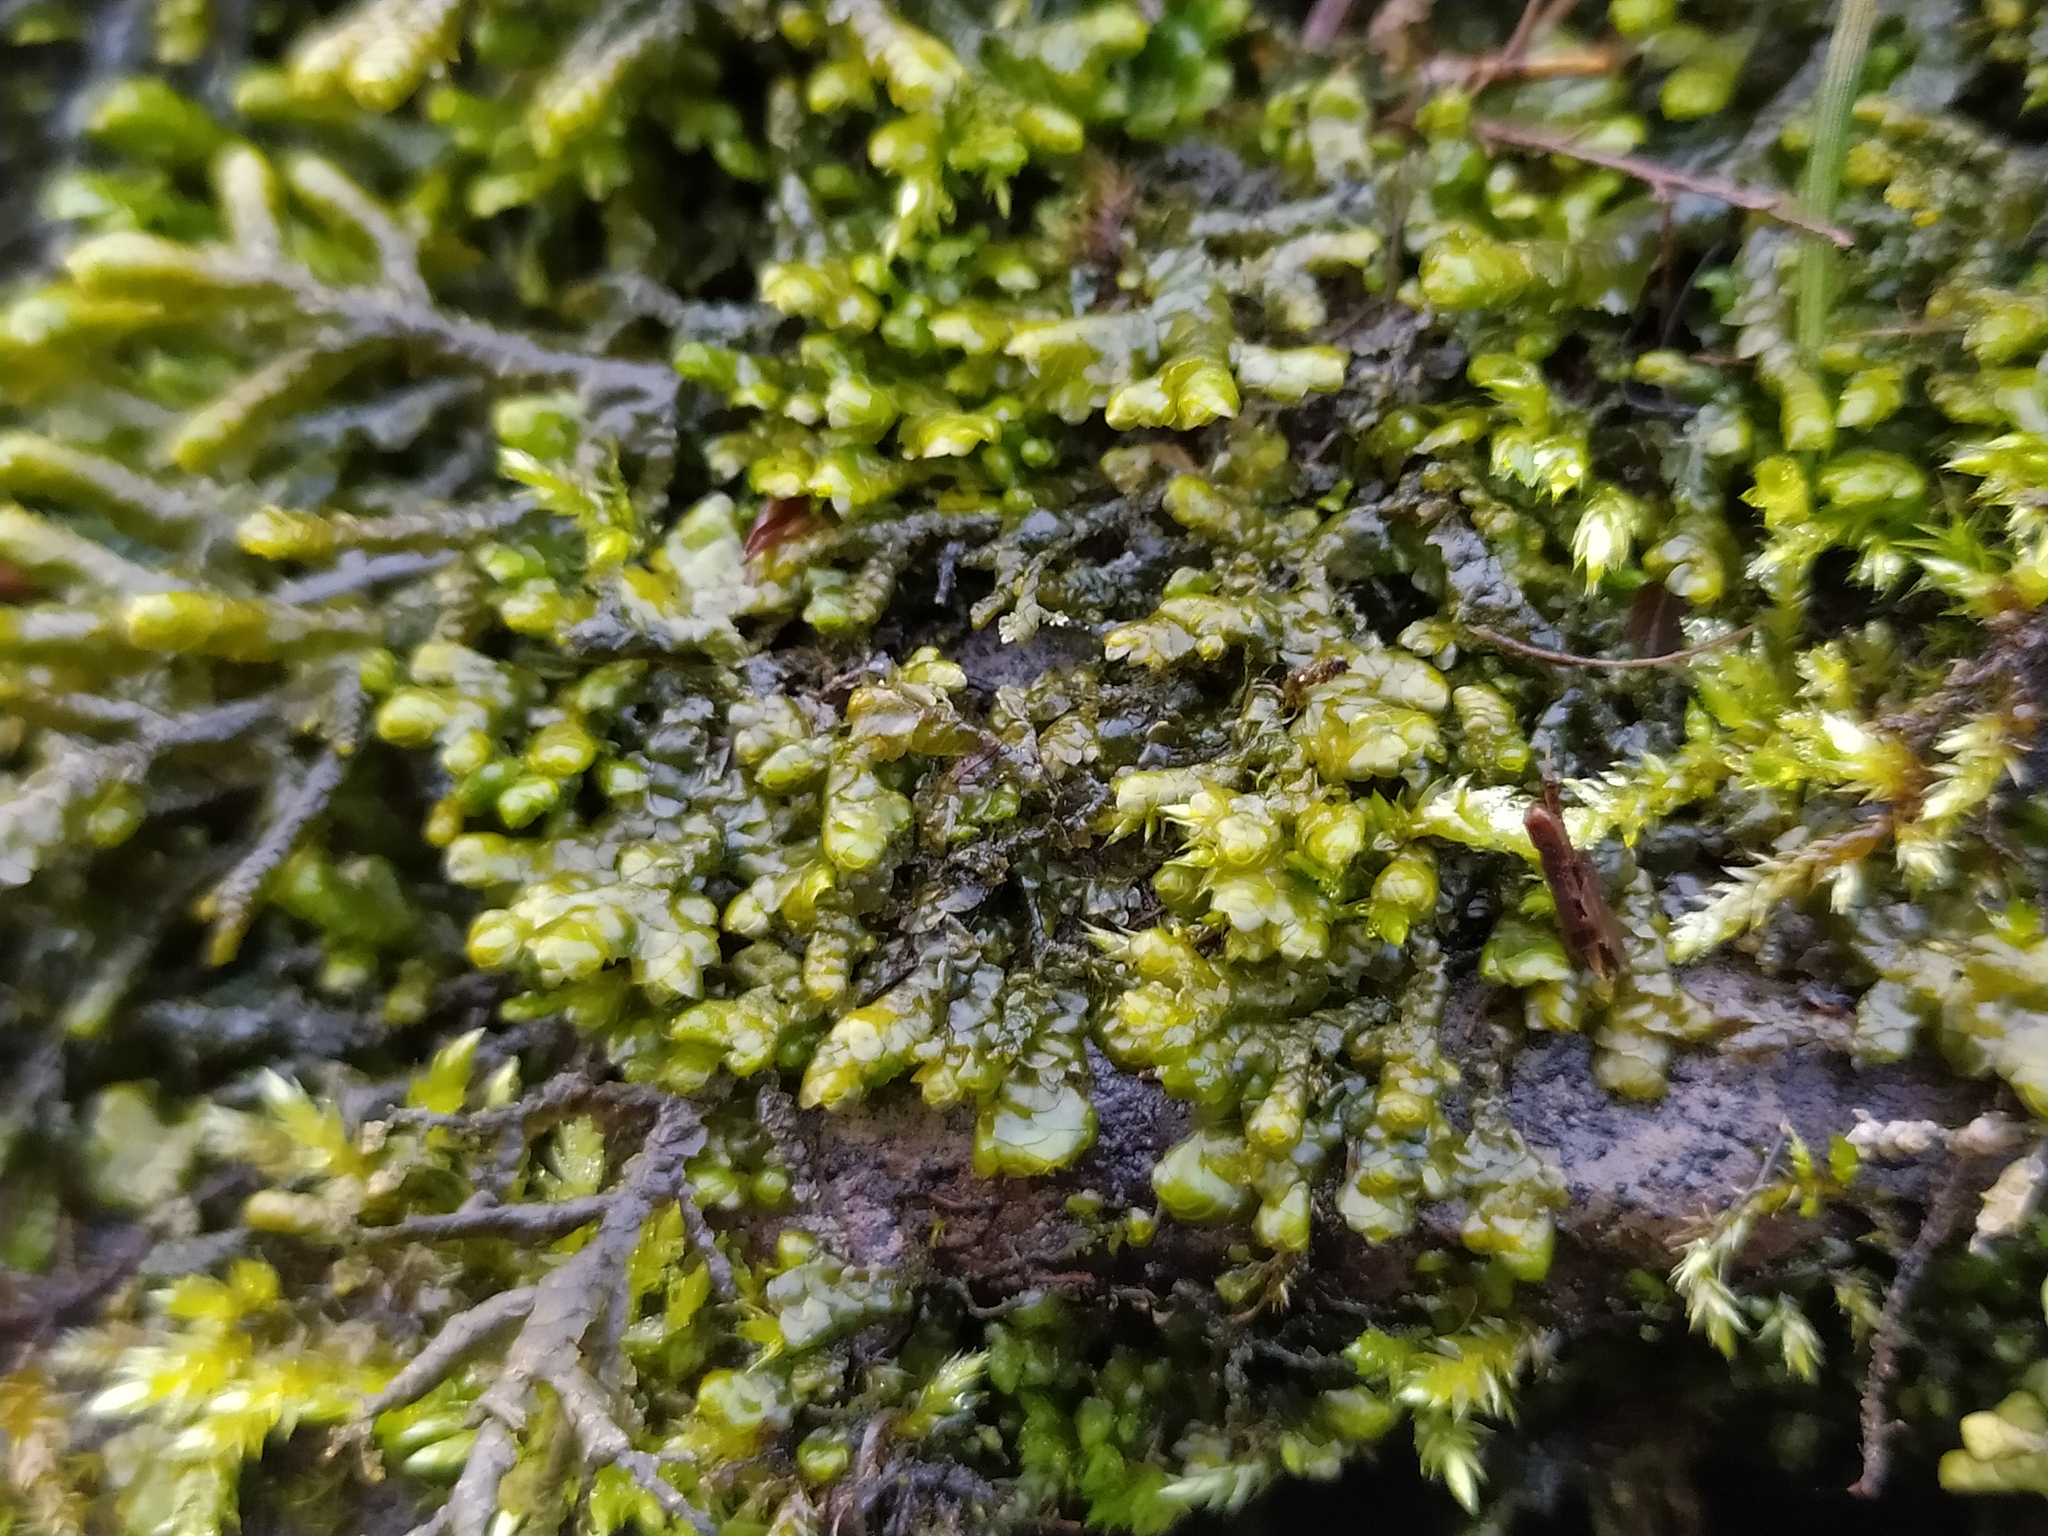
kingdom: Plantae
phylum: Marchantiophyta
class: Jungermanniopsida
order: Porellales
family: Porellaceae
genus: Porella
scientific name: Porella cordaeana
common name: Cliff scalewort
